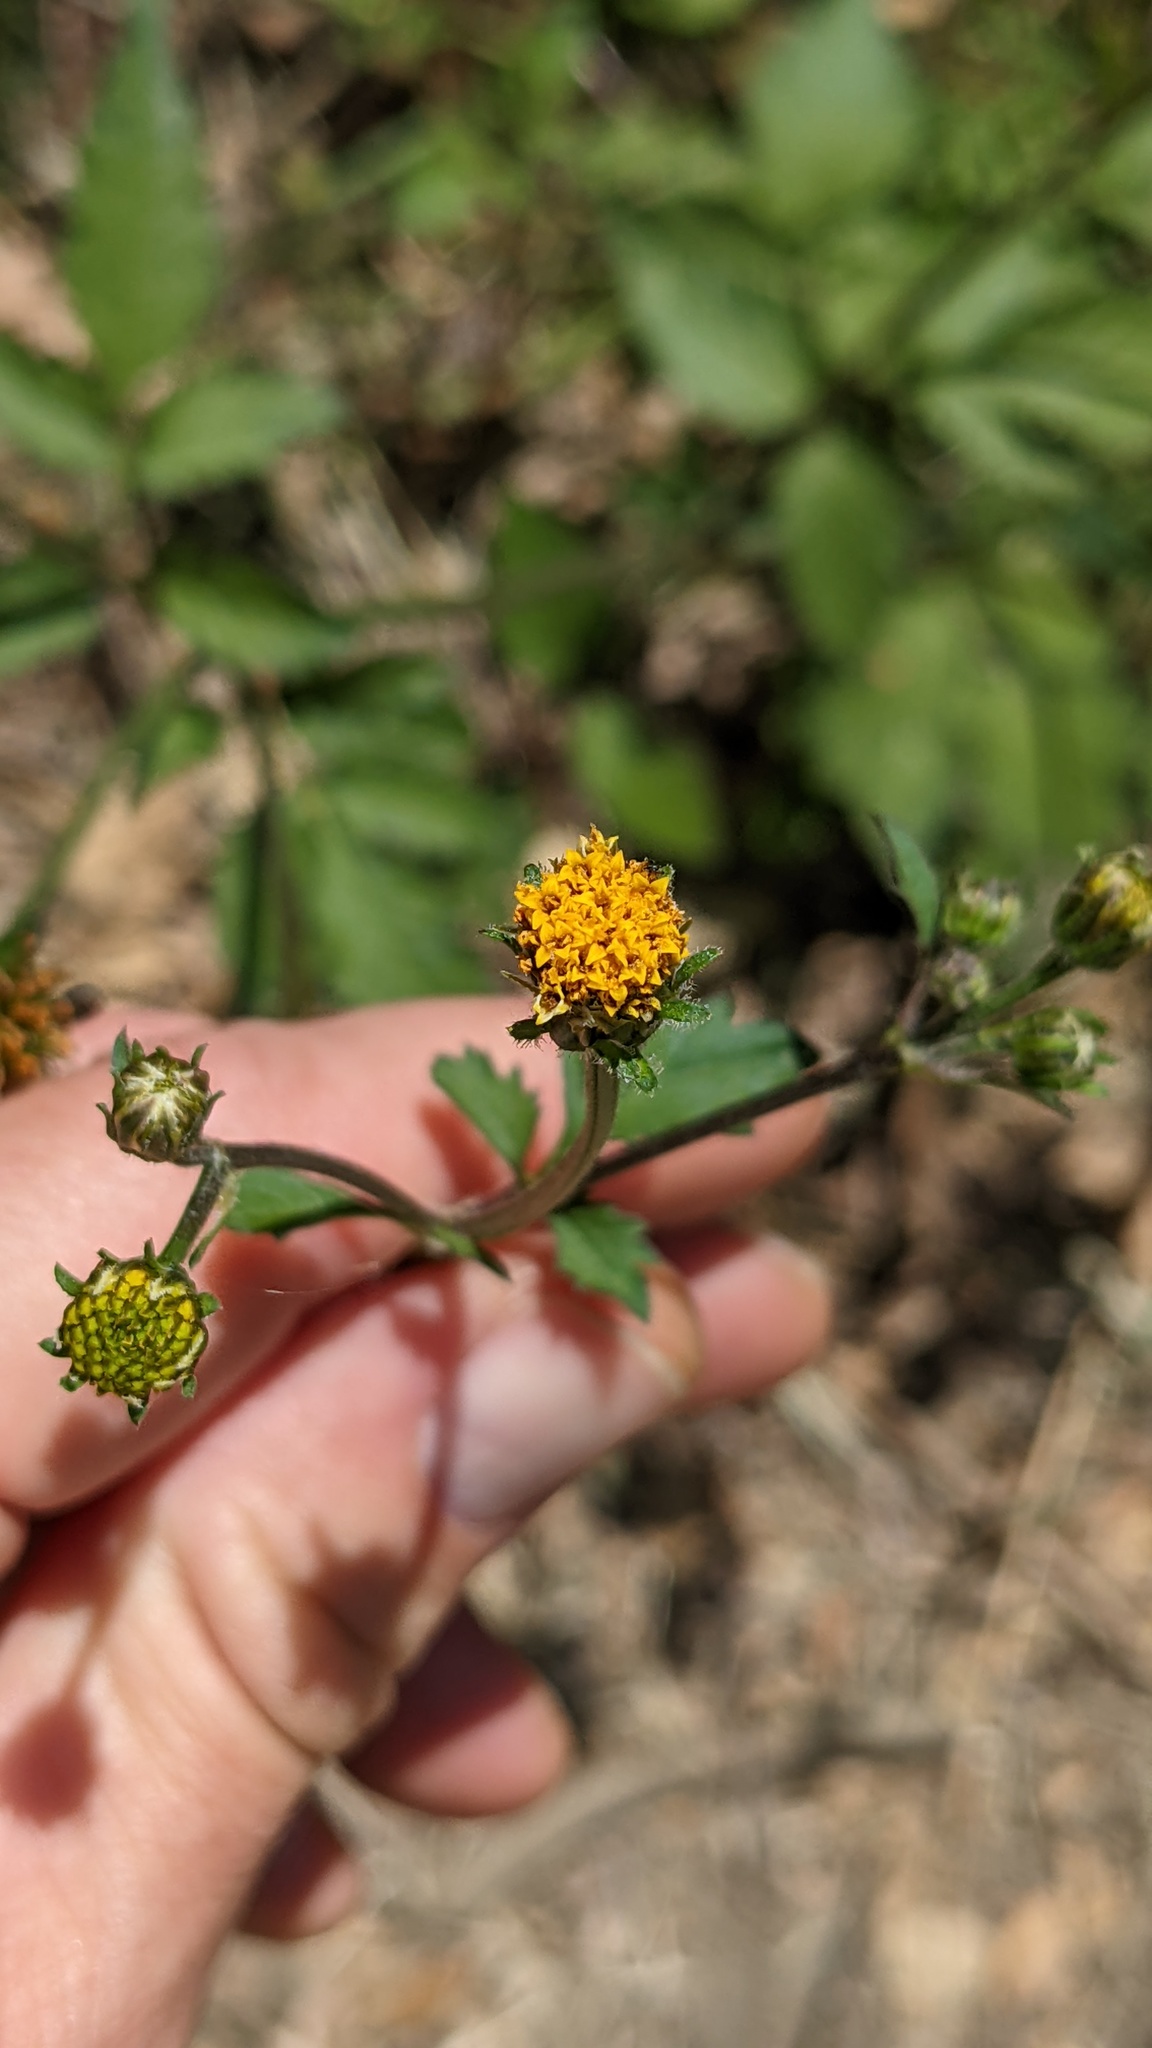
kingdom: Plantae
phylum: Tracheophyta
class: Magnoliopsida
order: Asterales
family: Asteraceae
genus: Bidens
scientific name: Bidens pilosa
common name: Black-jack
